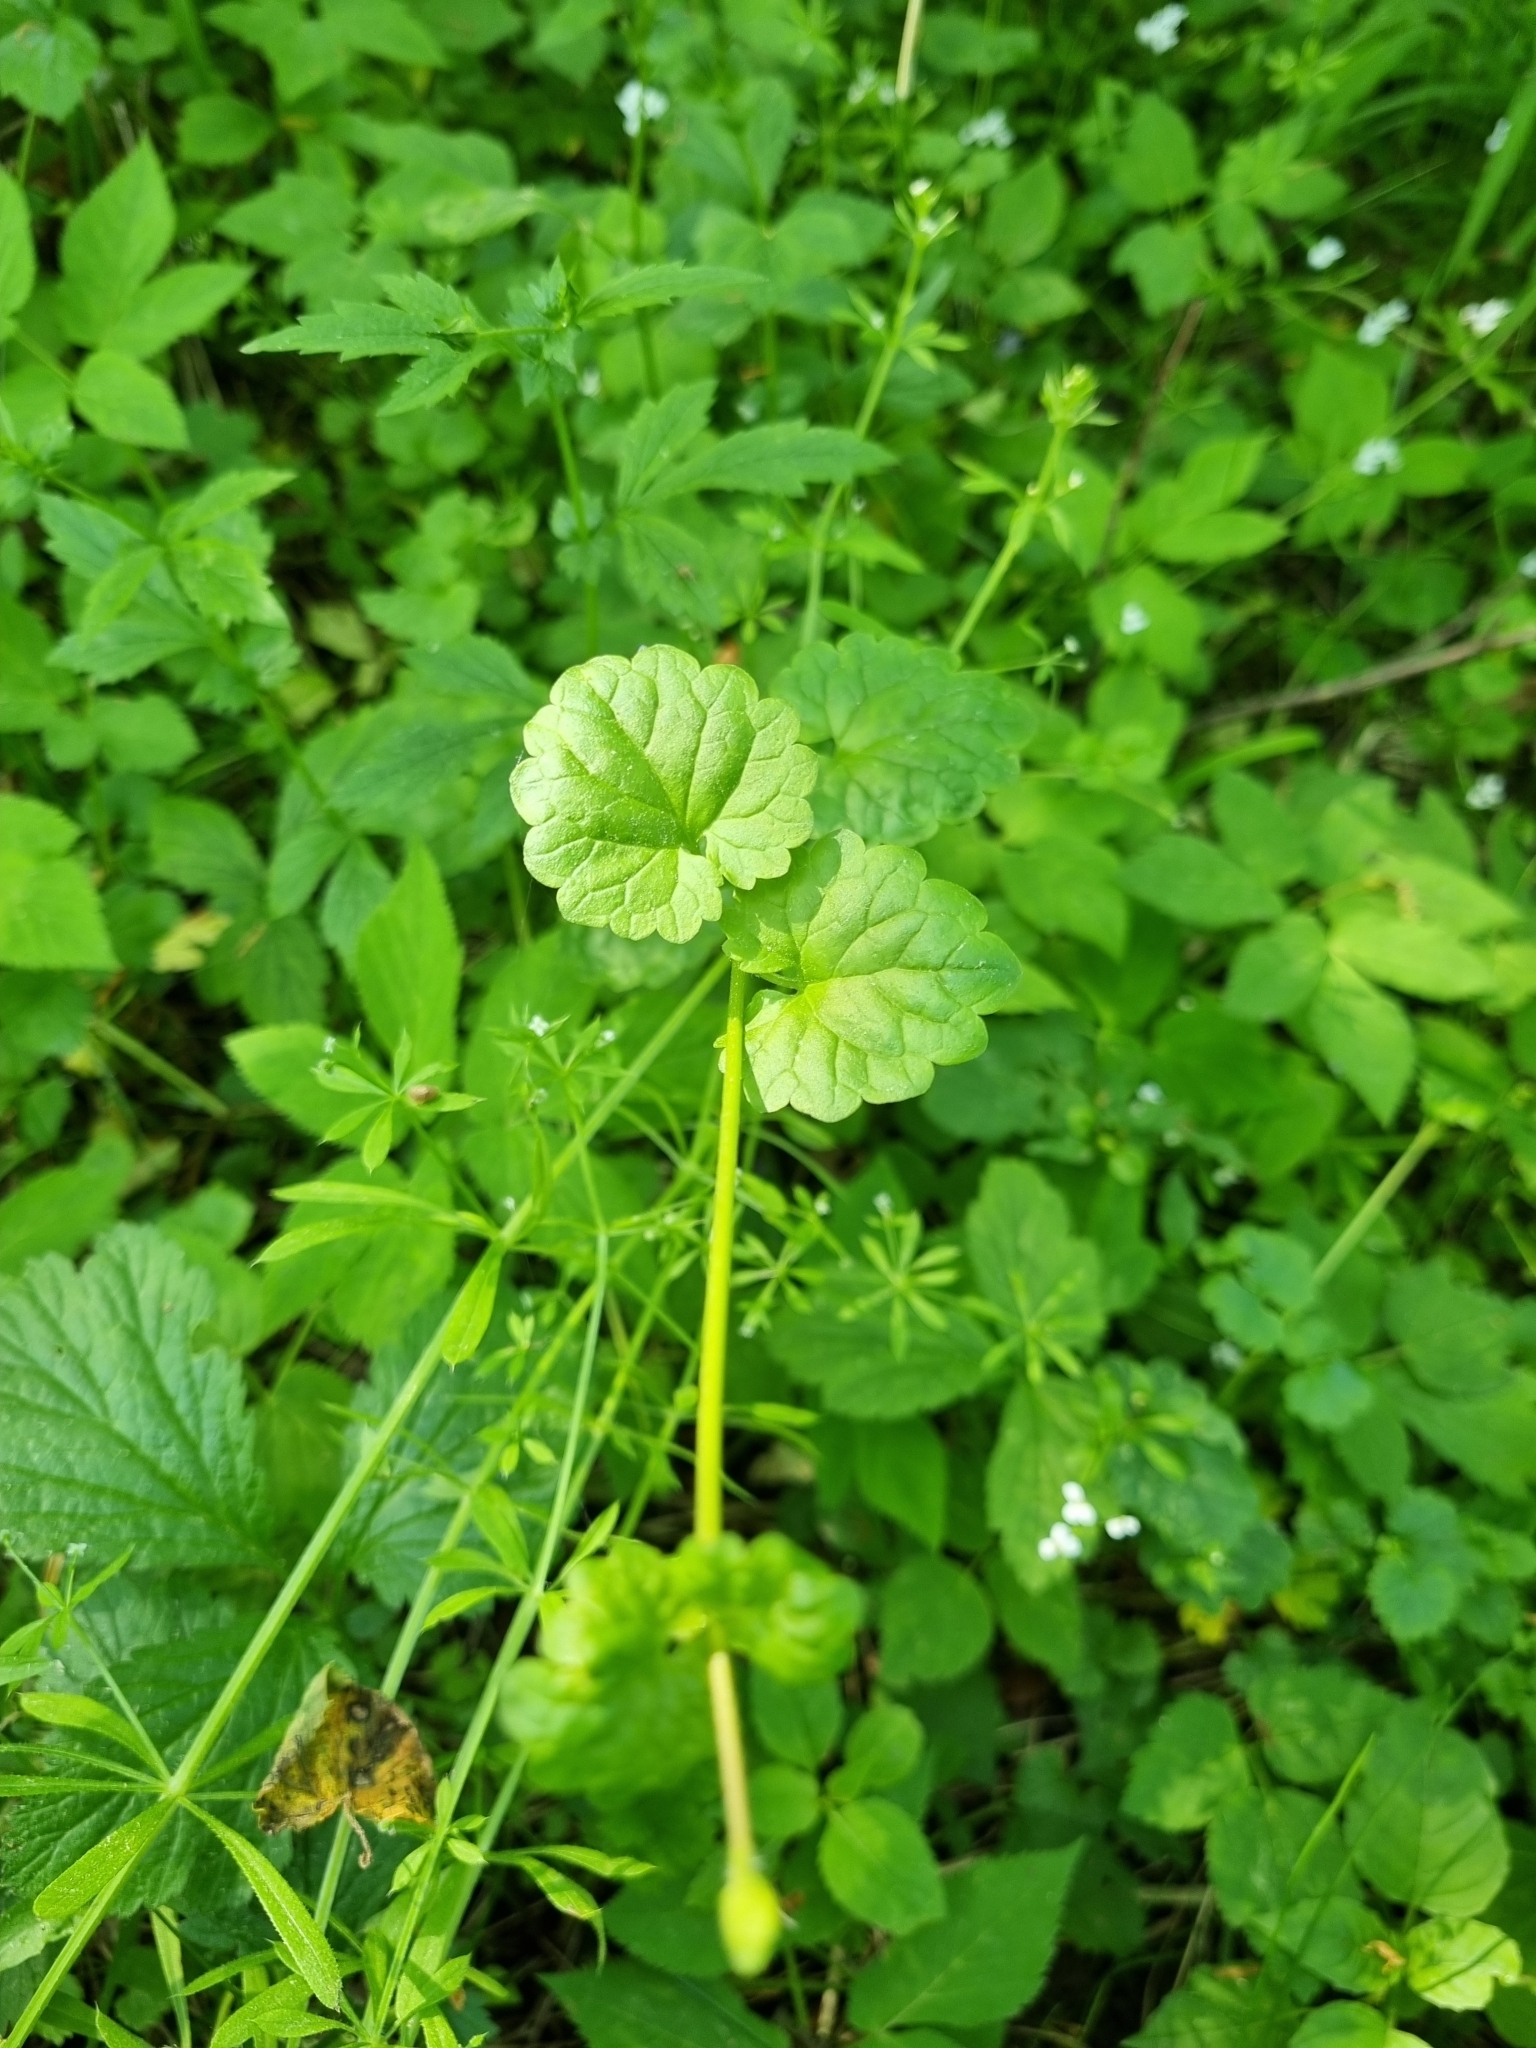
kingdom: Plantae
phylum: Tracheophyta
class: Magnoliopsida
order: Lamiales
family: Lamiaceae
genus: Glechoma
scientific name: Glechoma hederacea
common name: Ground ivy
